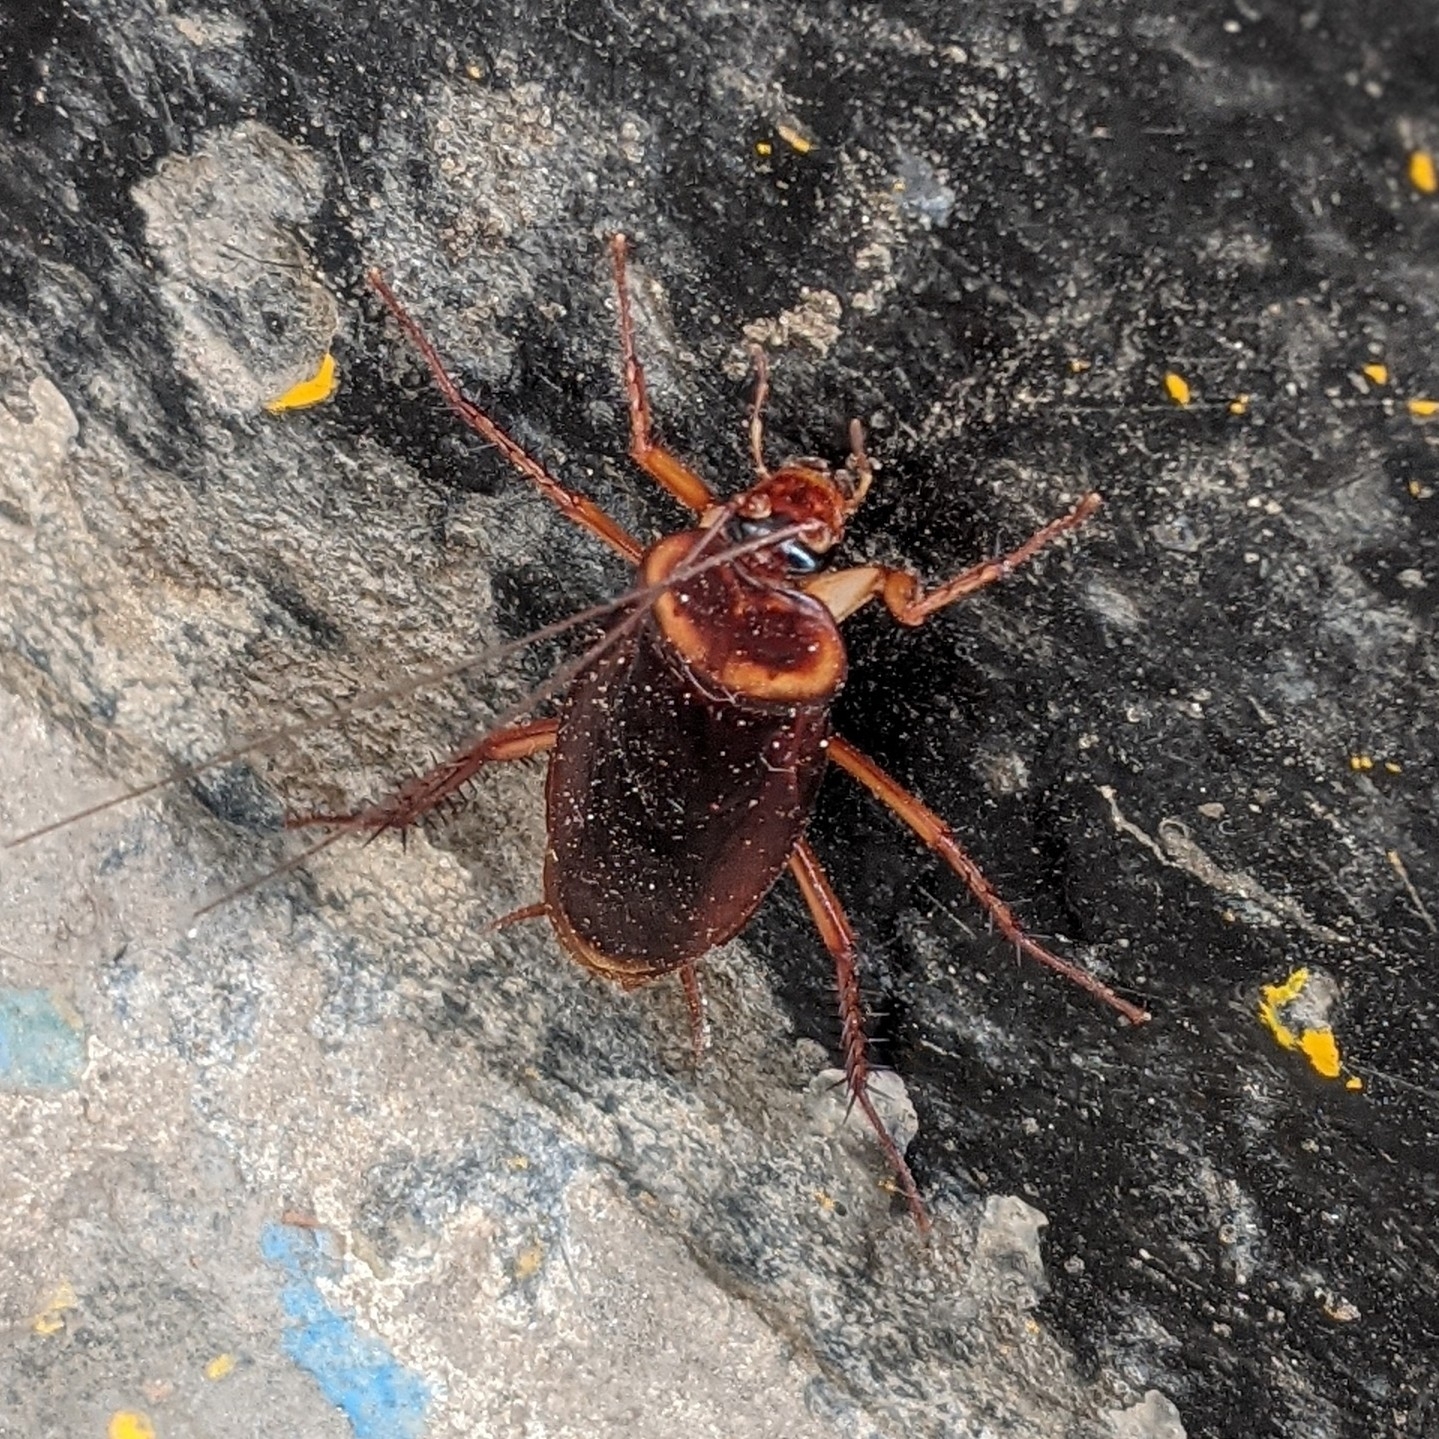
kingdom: Animalia
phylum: Arthropoda
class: Insecta
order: Blattodea
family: Blattidae
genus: Periplaneta
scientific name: Periplaneta americana
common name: American cockroach
